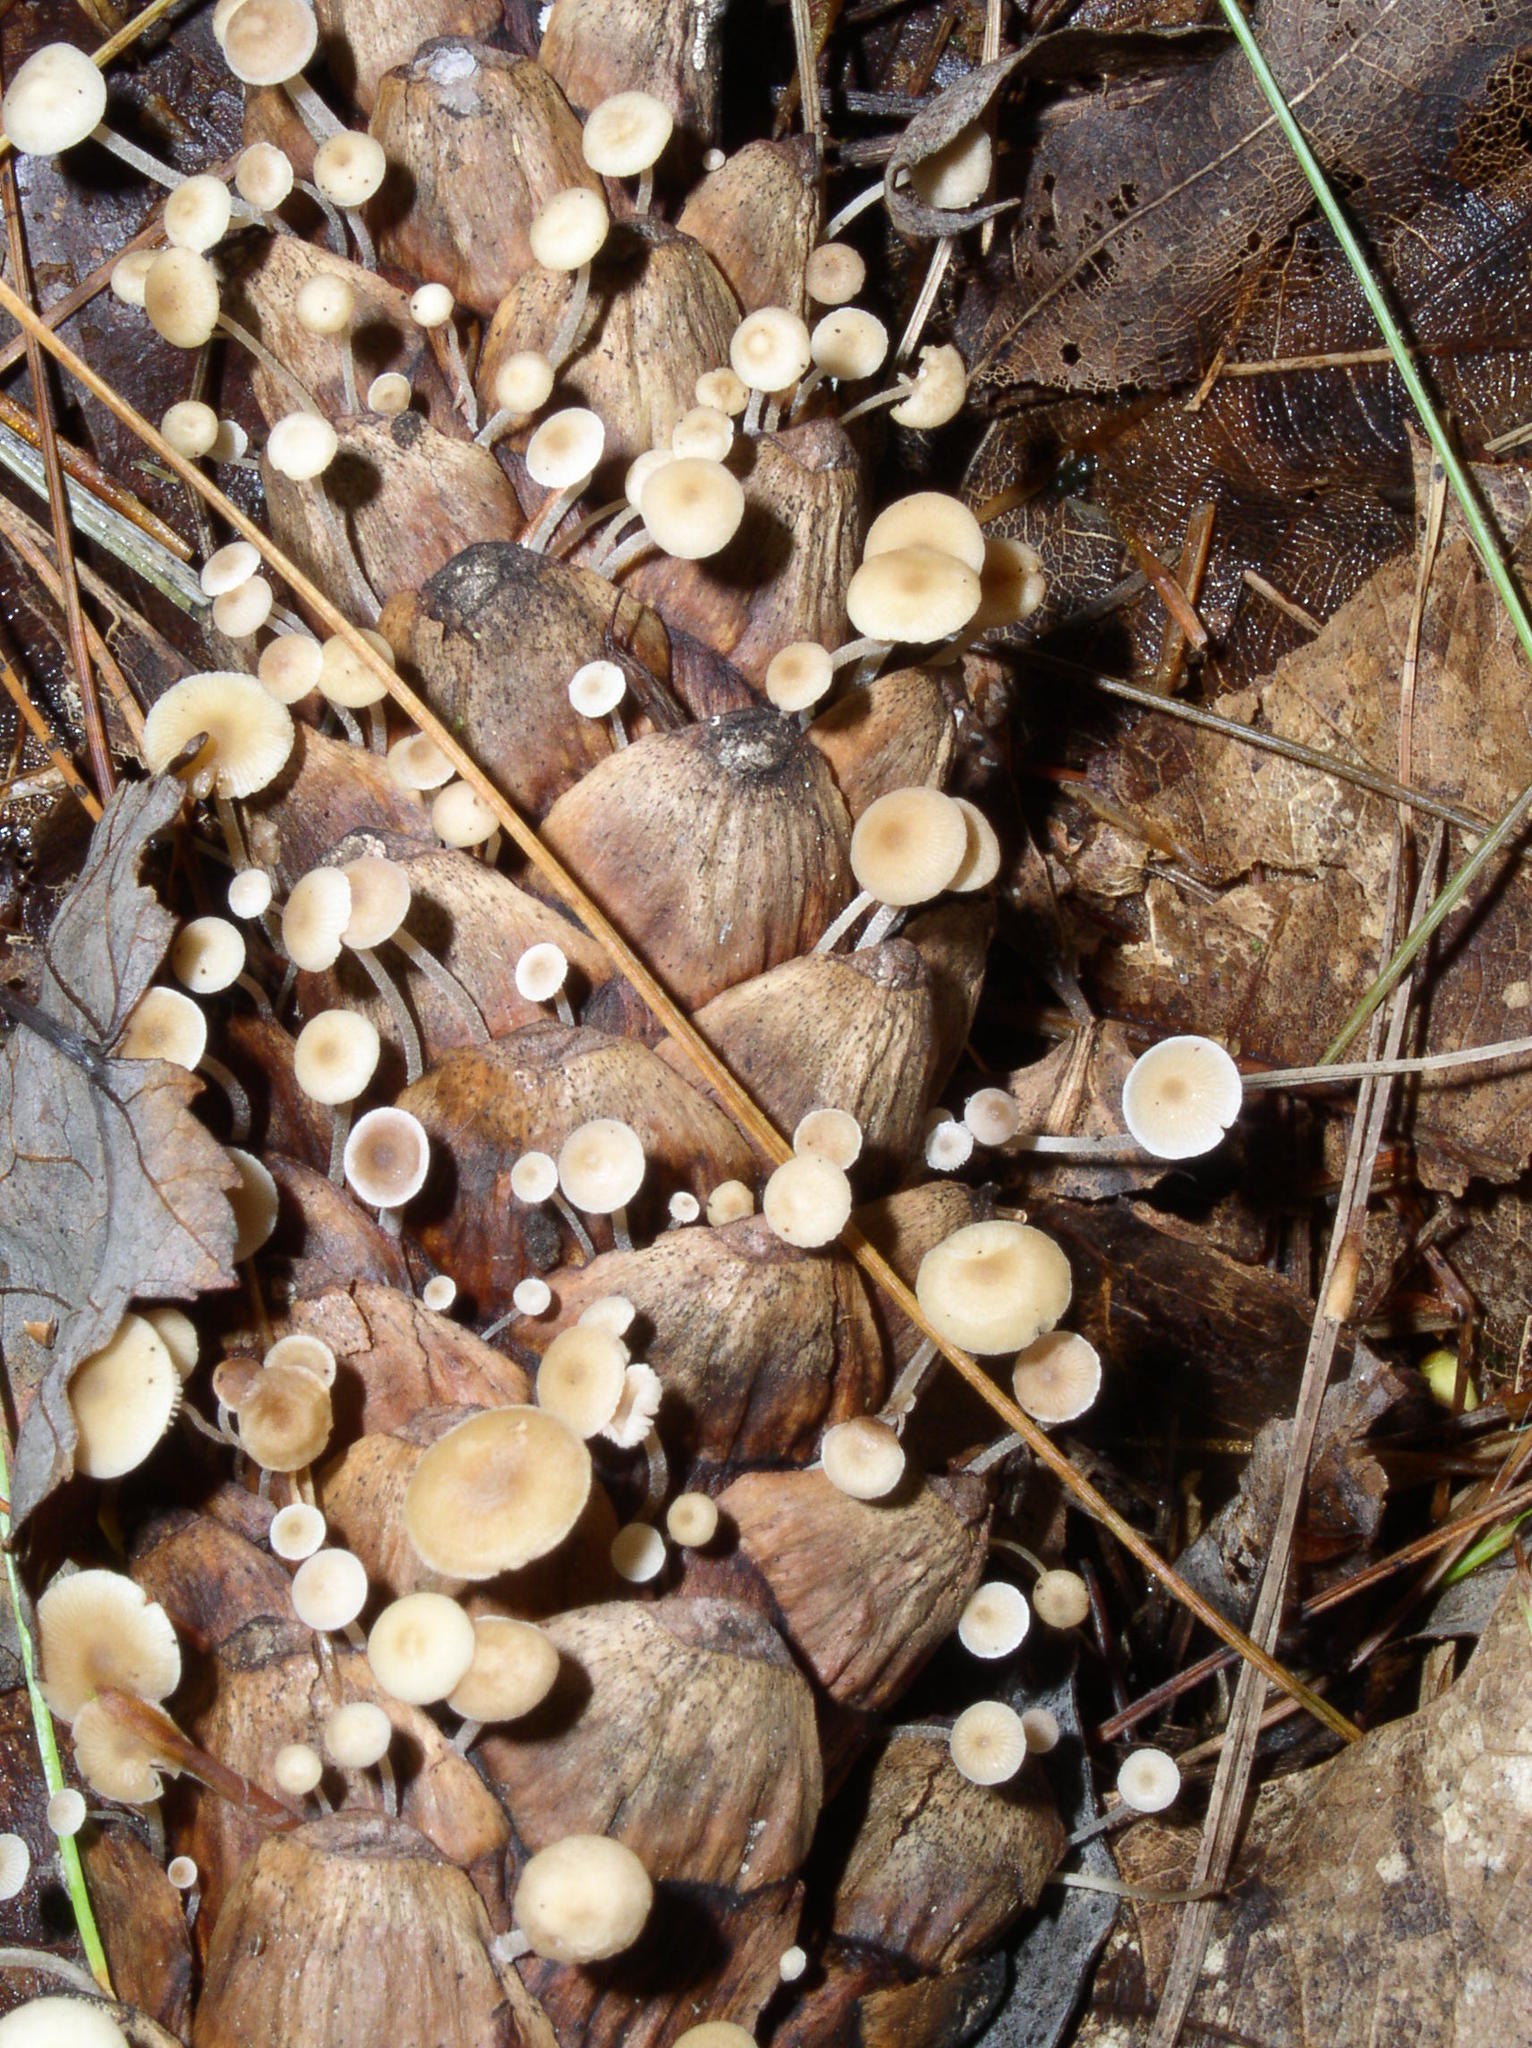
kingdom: Fungi
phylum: Basidiomycota
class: Agaricomycetes
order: Agaricales
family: Marasmiaceae
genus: Baeospora
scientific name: Baeospora myosura
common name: Conifercone cap
